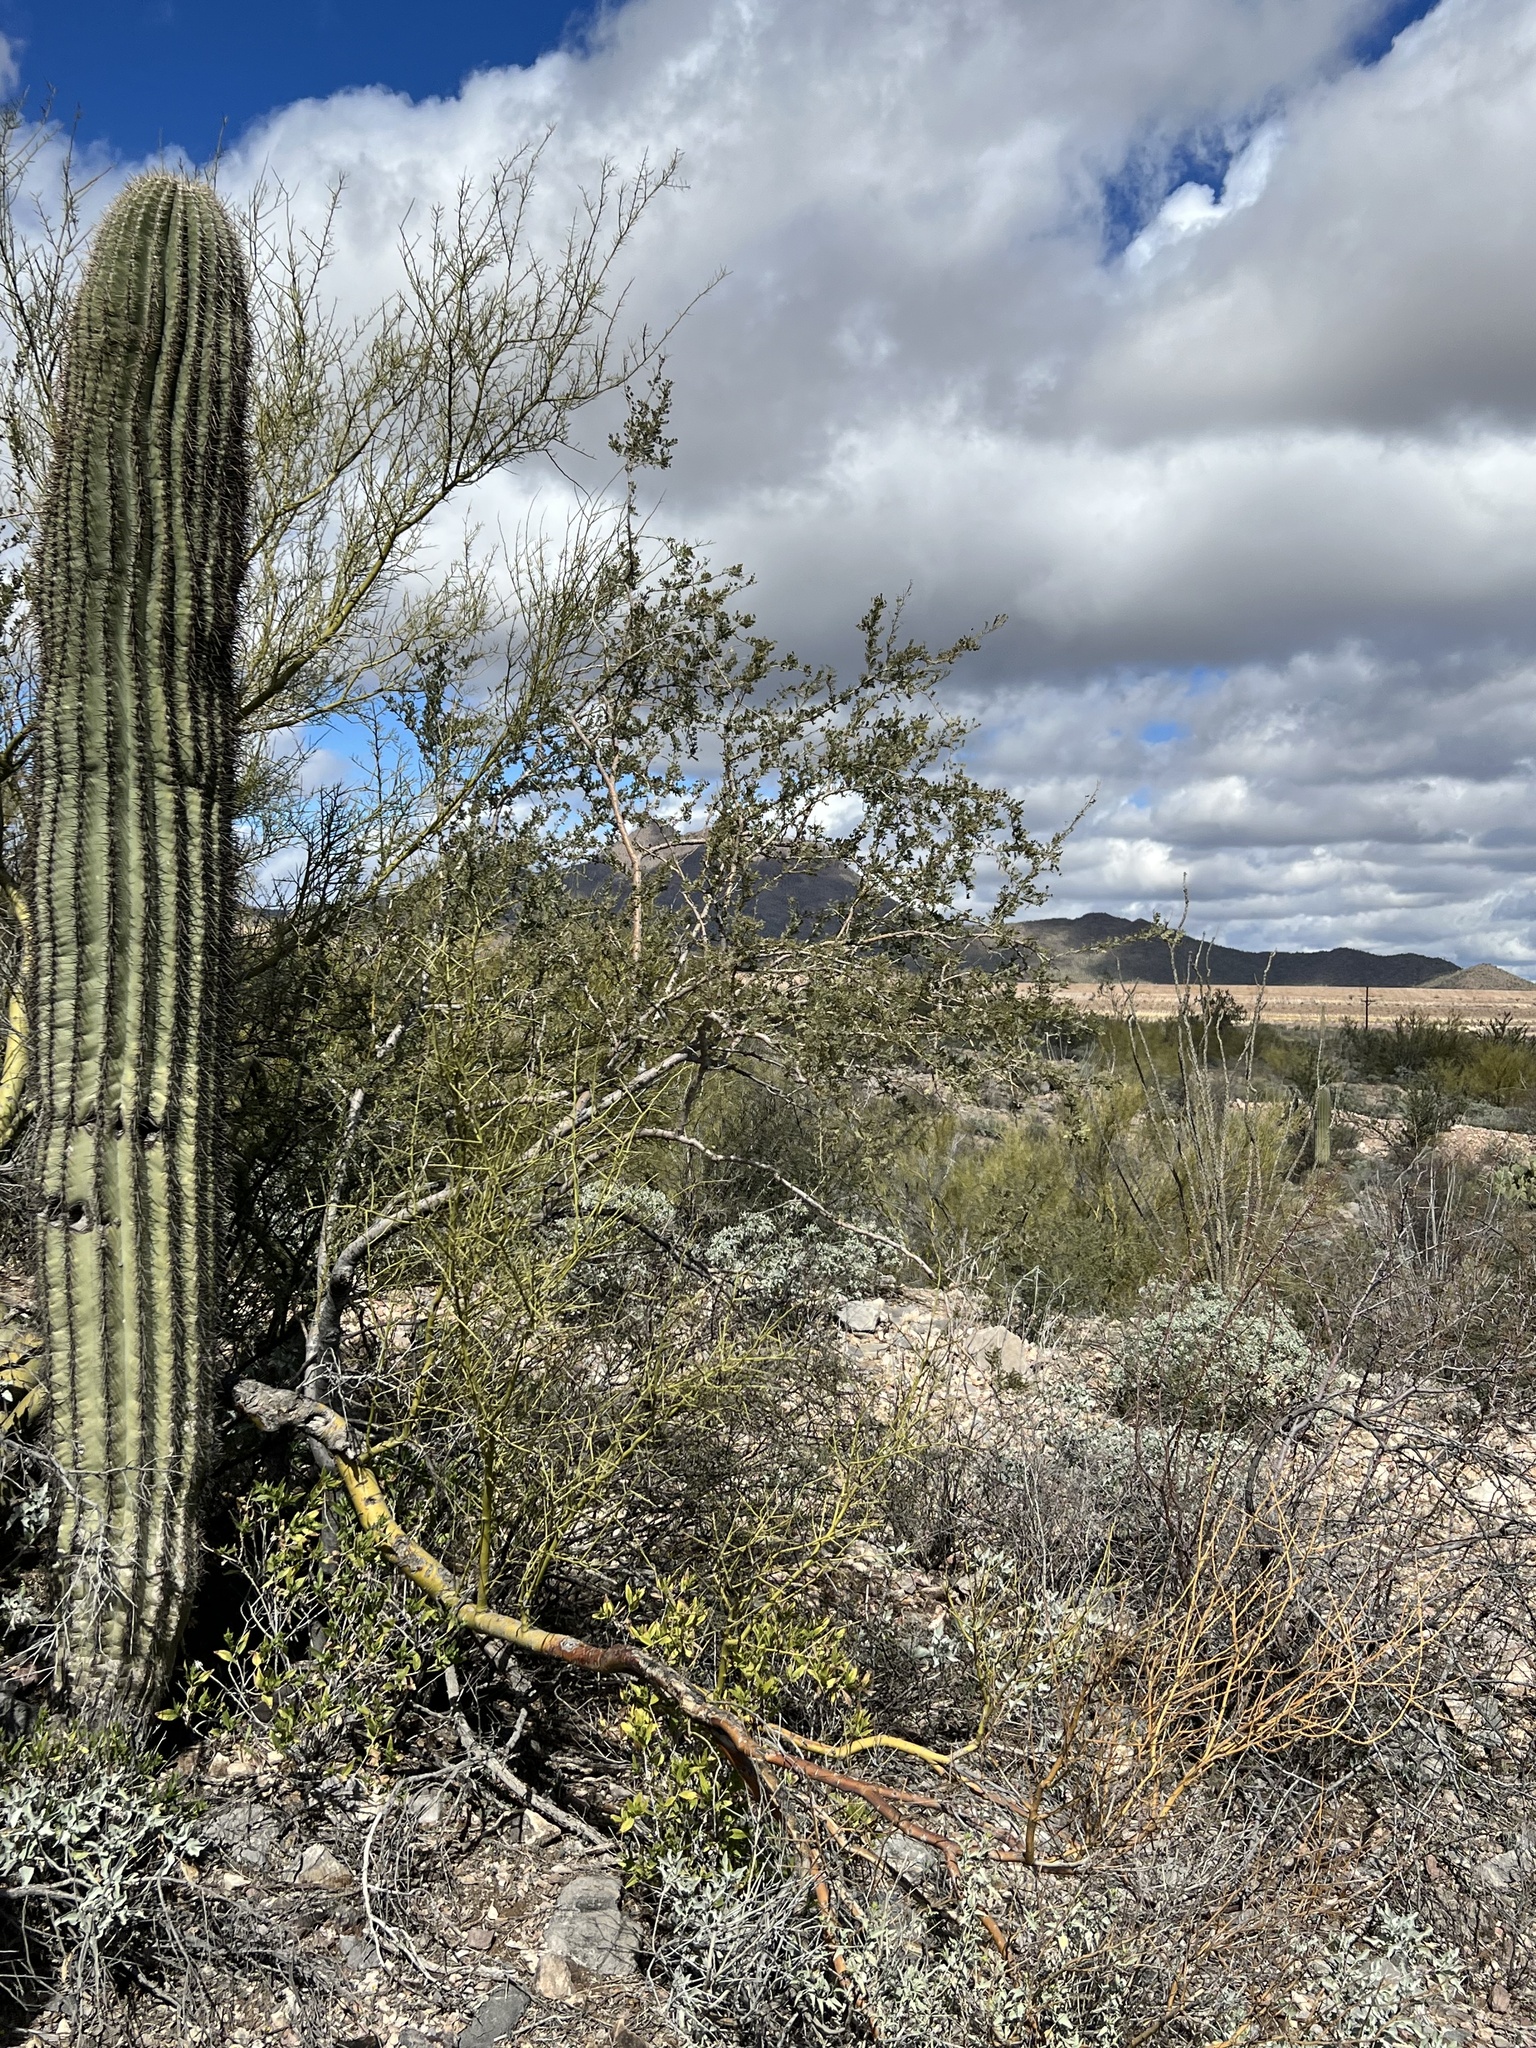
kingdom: Plantae
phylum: Tracheophyta
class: Magnoliopsida
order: Fabales
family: Fabaceae
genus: Olneya
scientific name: Olneya tesota
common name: Desert ironwood
